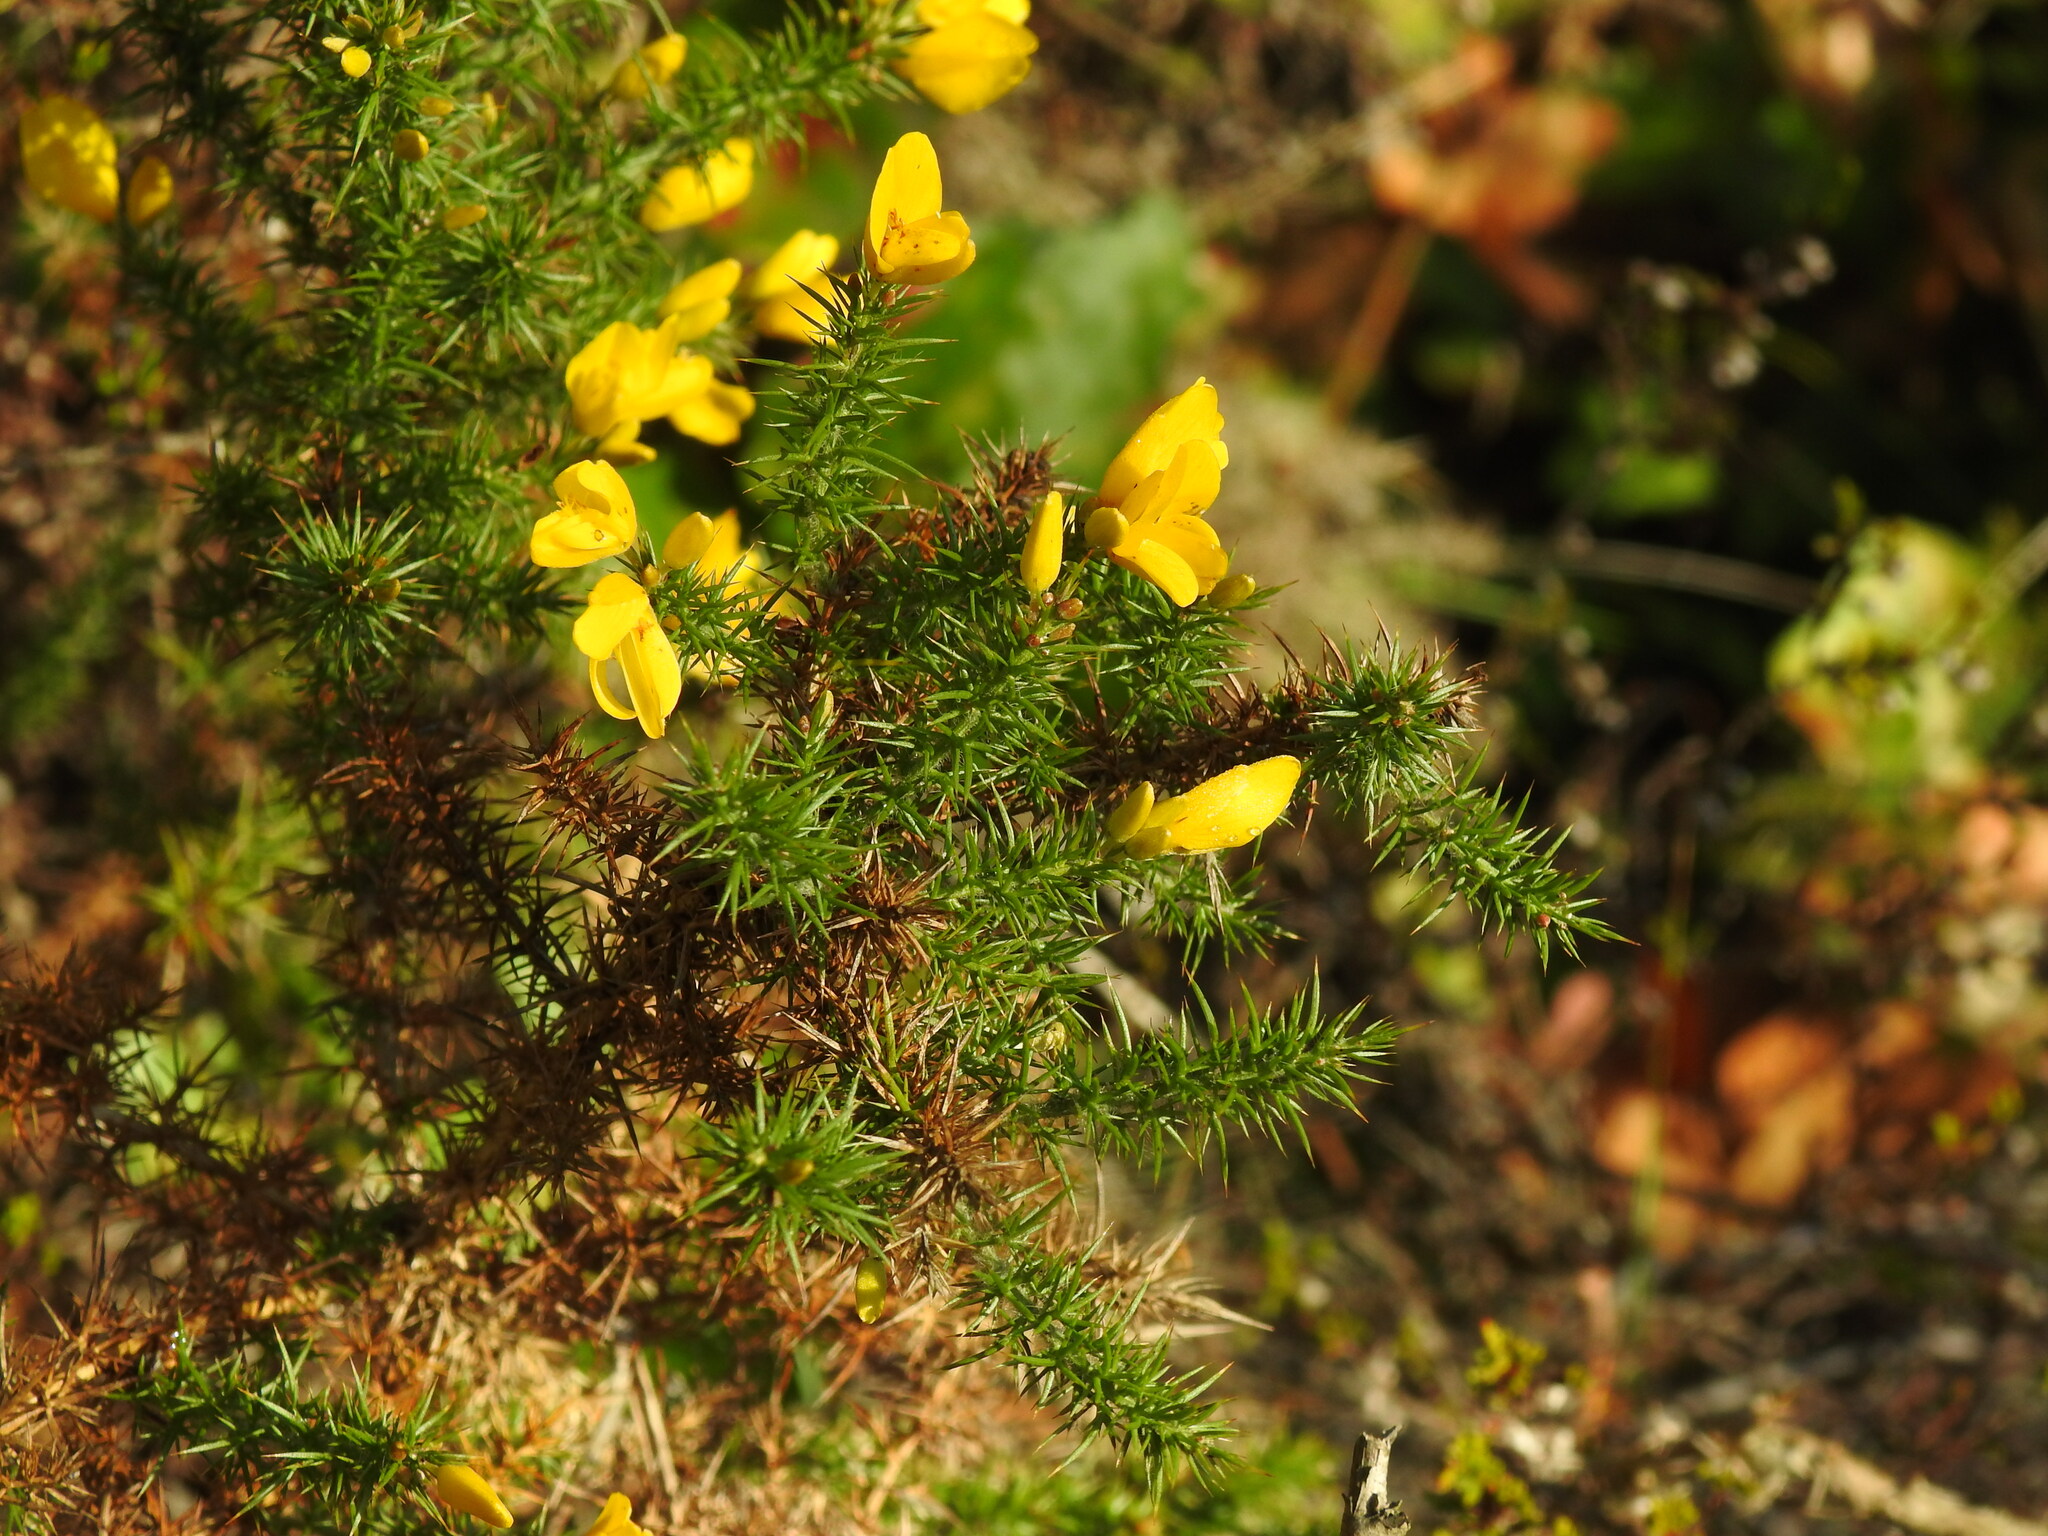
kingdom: Plantae
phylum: Tracheophyta
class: Magnoliopsida
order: Fabales
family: Fabaceae
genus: Ulex
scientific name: Ulex minor
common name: Dwarf gorse
